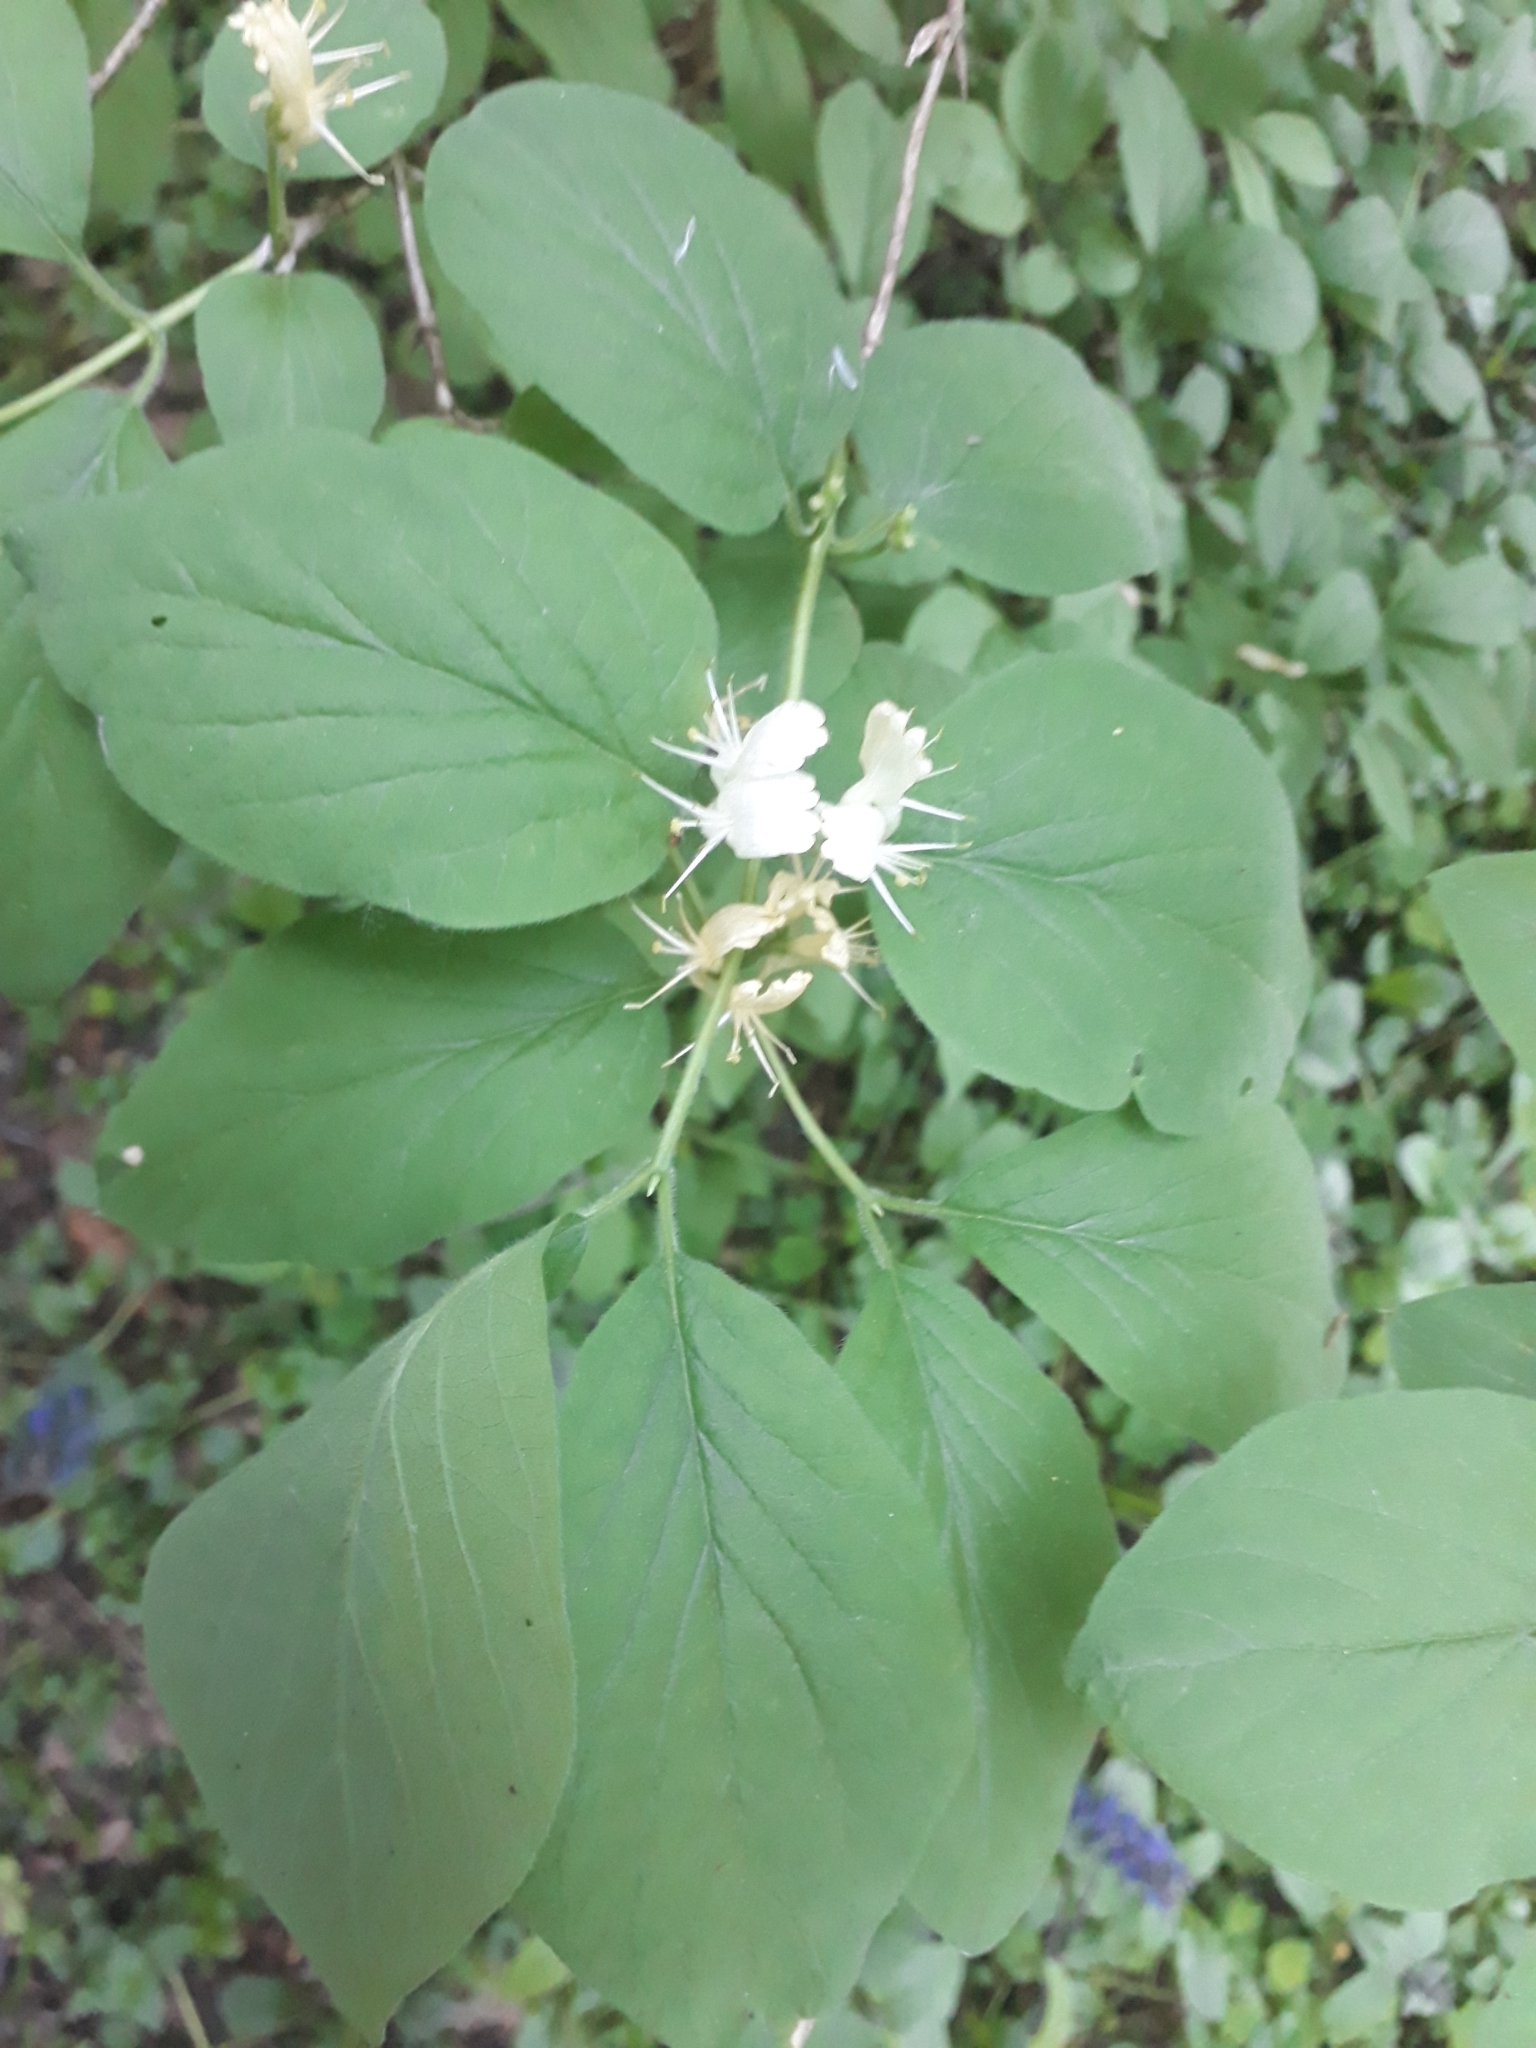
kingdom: Plantae
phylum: Tracheophyta
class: Magnoliopsida
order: Dipsacales
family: Caprifoliaceae
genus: Lonicera
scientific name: Lonicera xylosteum
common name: Fly honeysuckle
